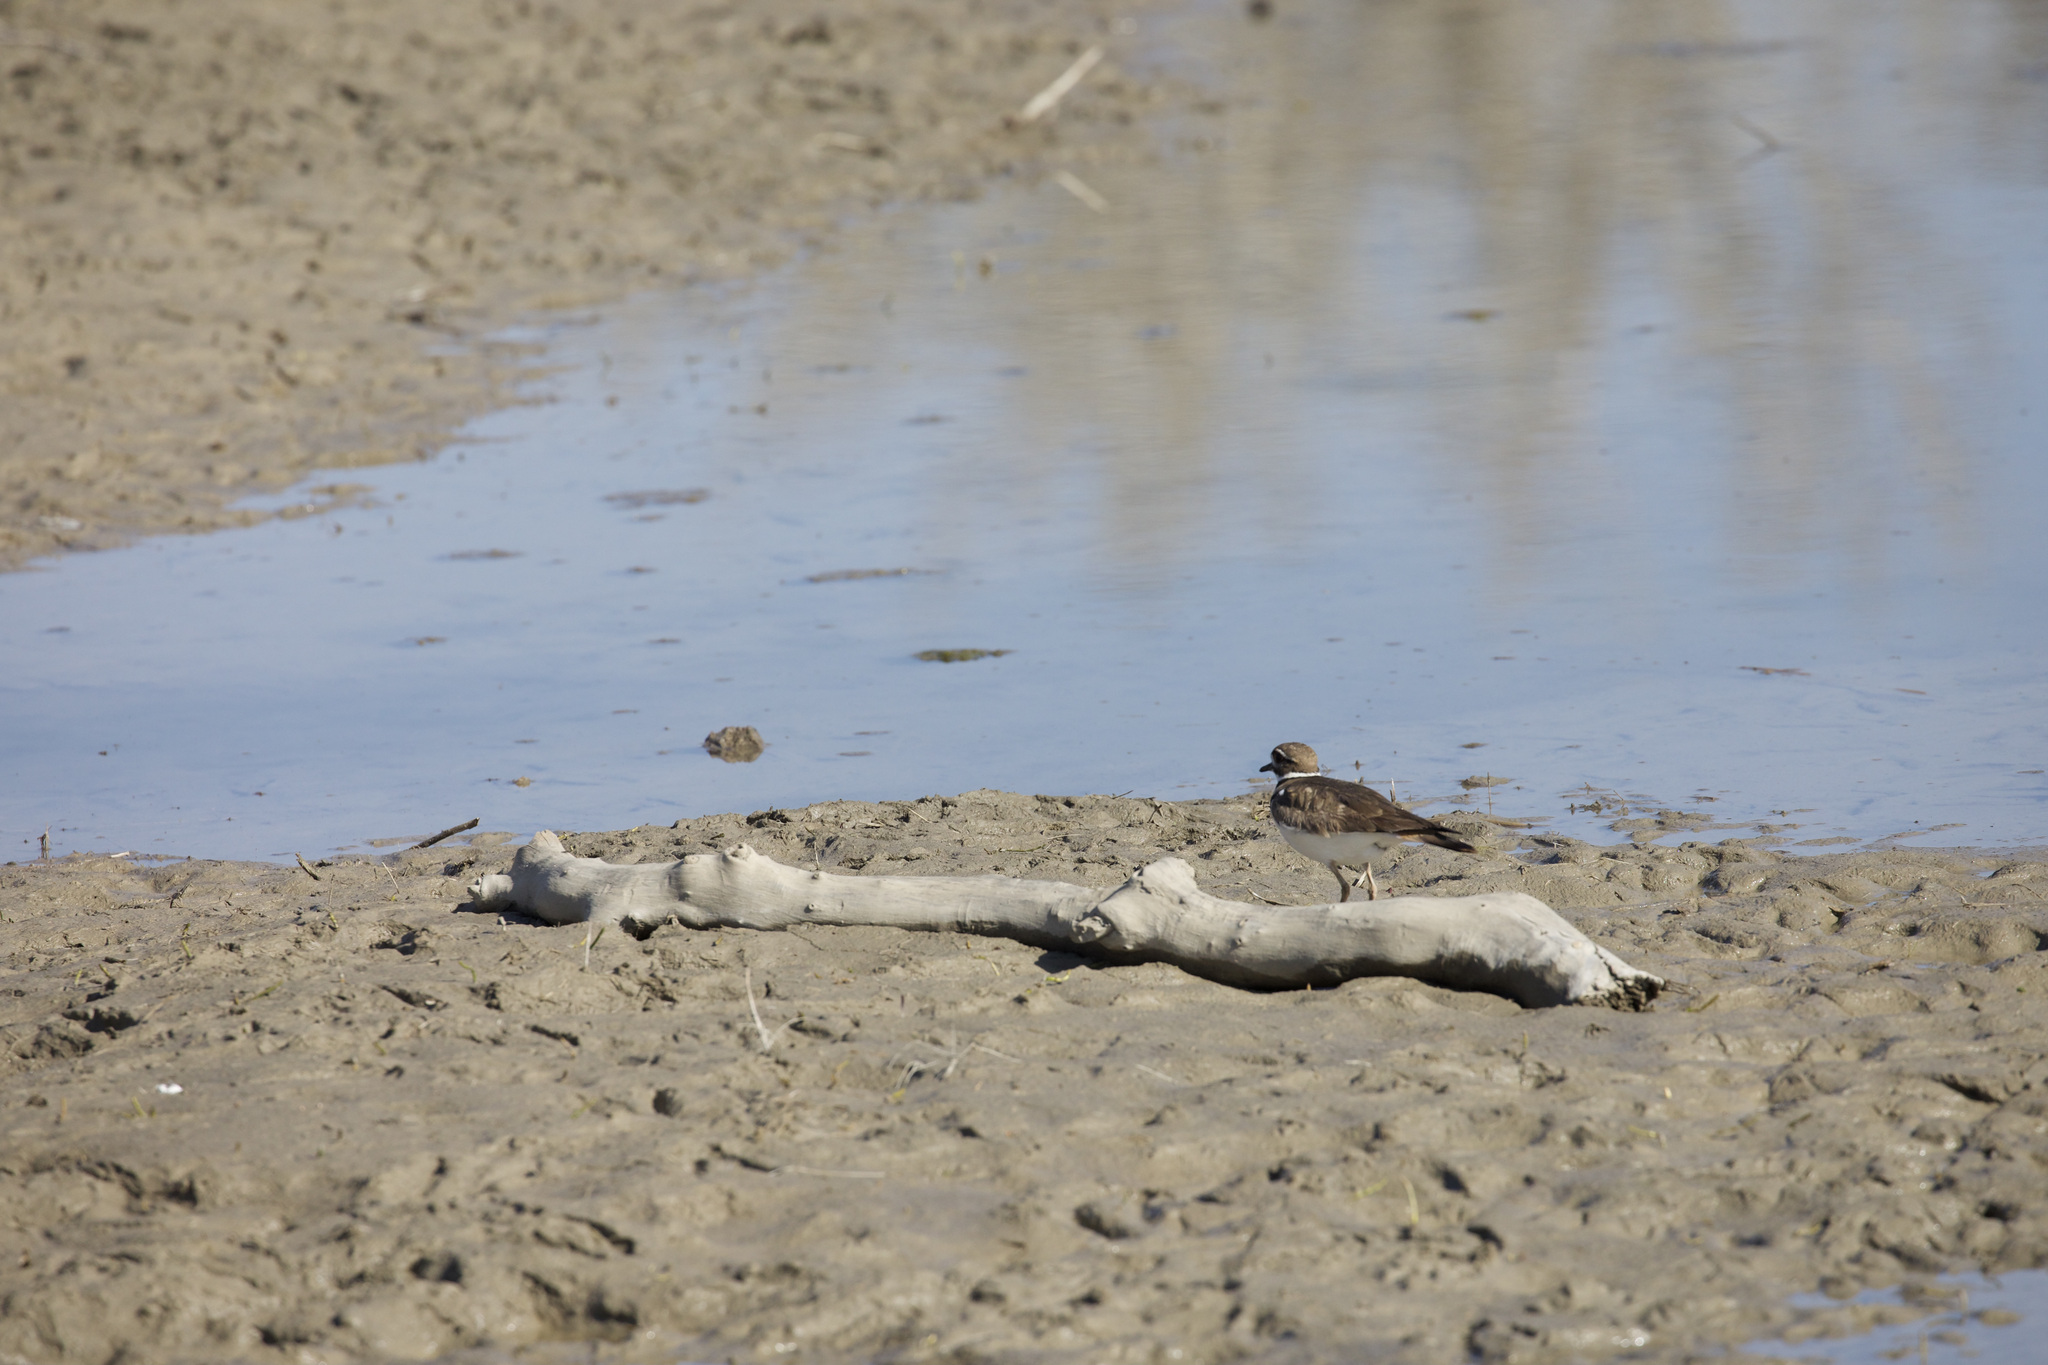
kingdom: Animalia
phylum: Chordata
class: Aves
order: Charadriiformes
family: Charadriidae
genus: Charadrius
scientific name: Charadrius vociferus
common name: Killdeer
